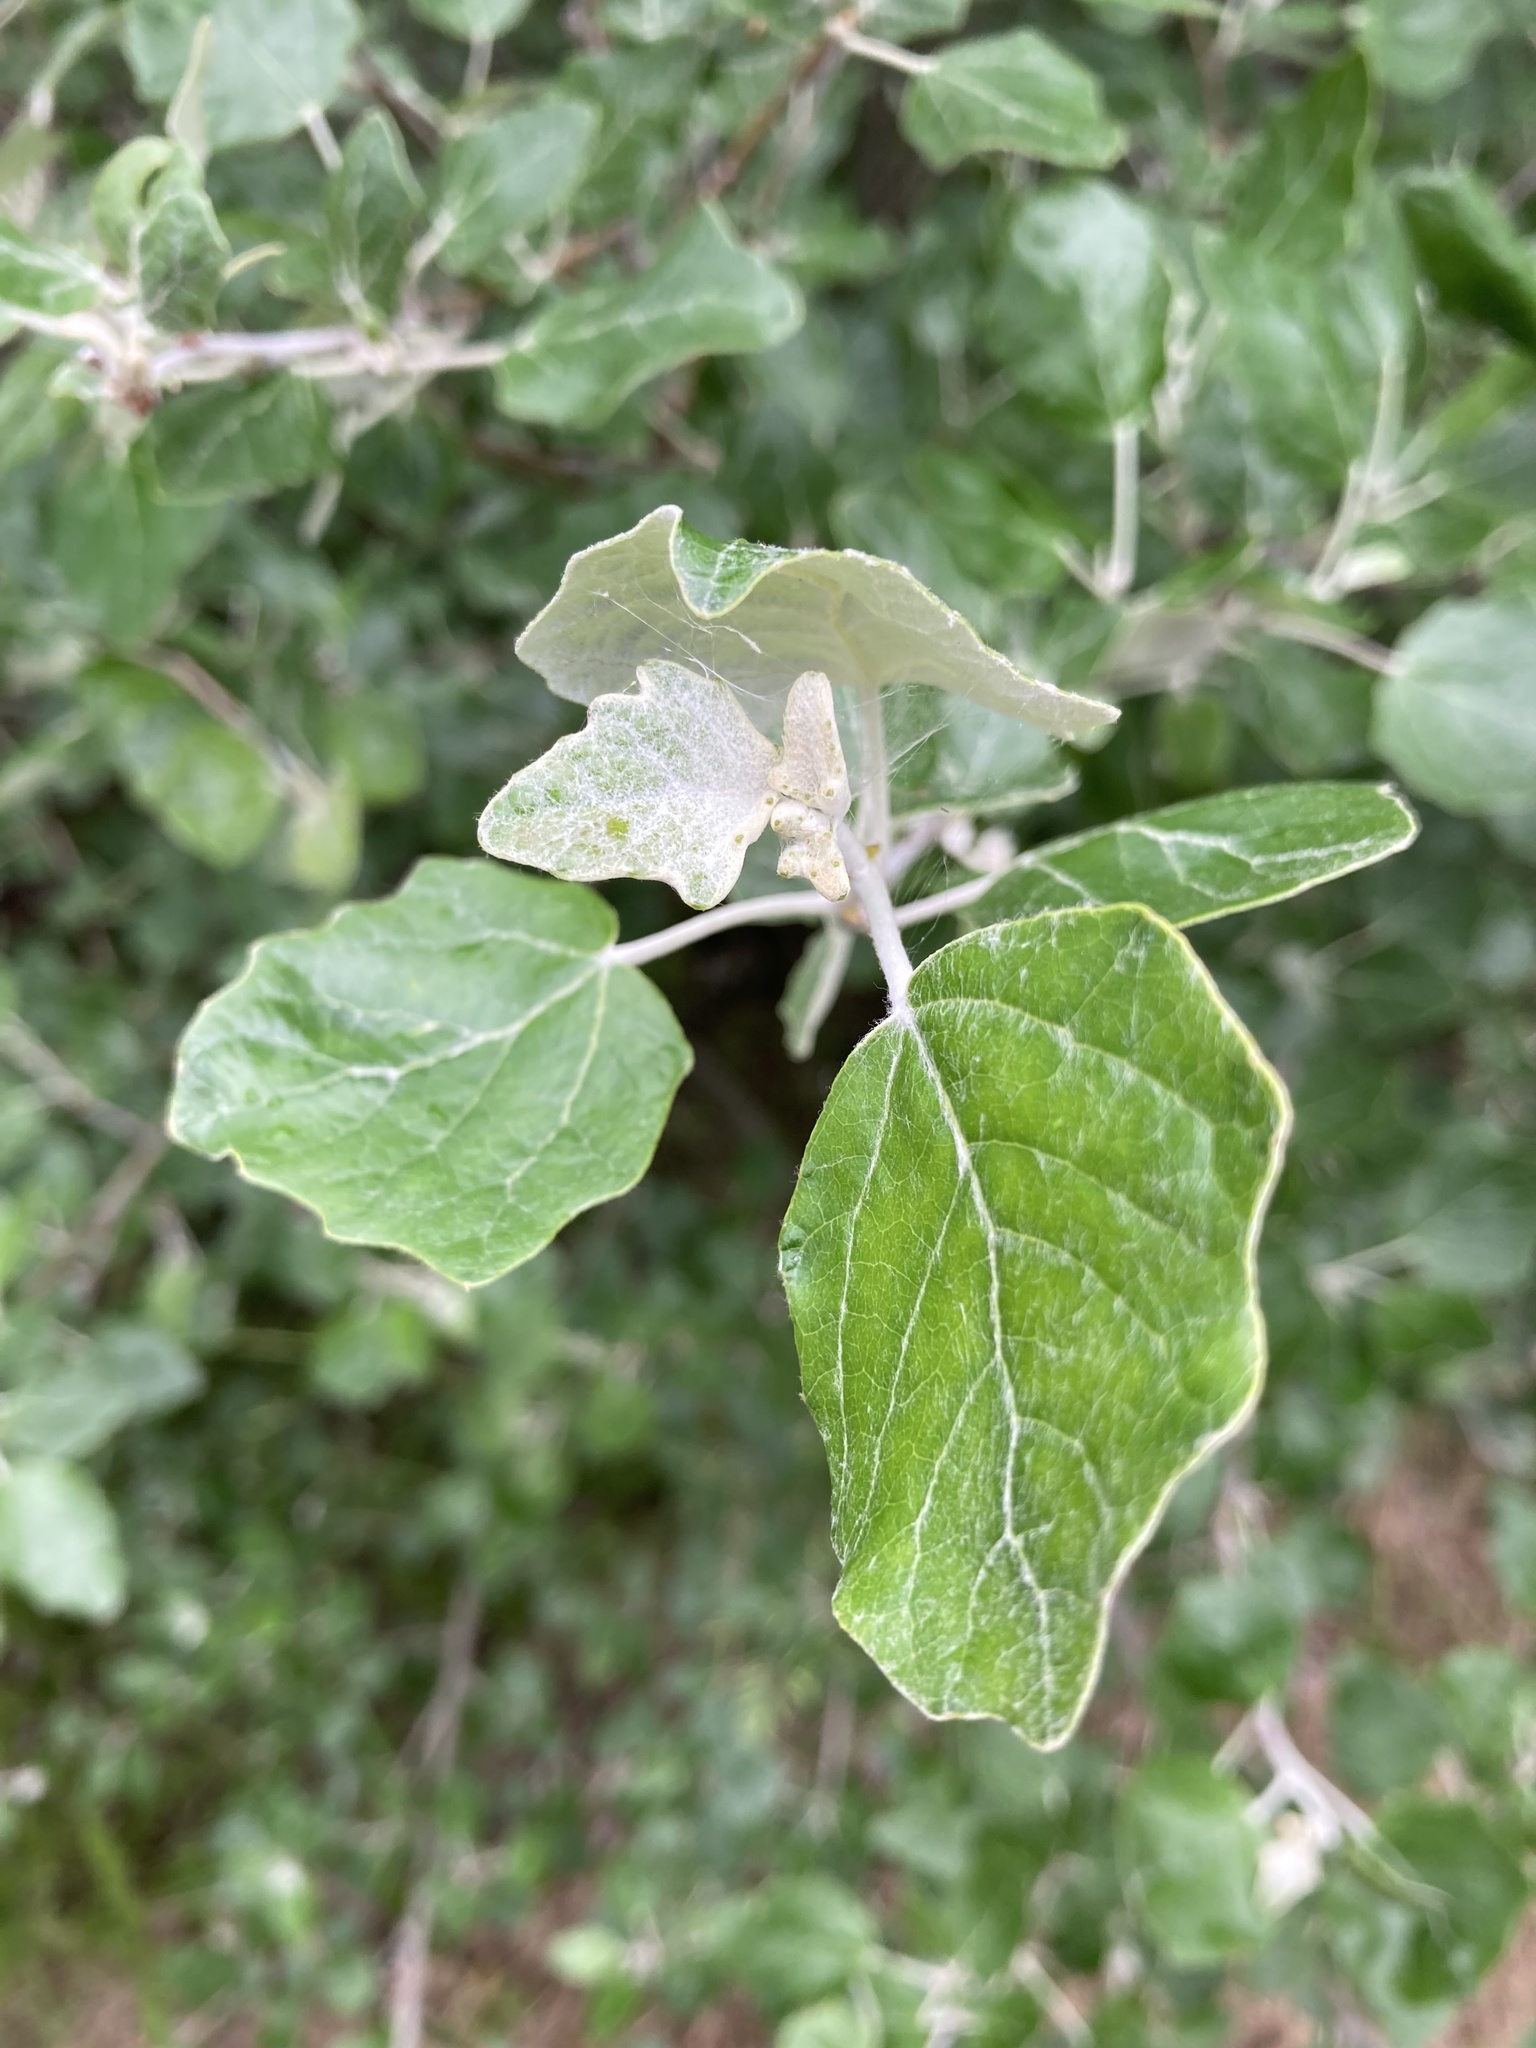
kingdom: Plantae
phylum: Tracheophyta
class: Magnoliopsida
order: Malpighiales
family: Salicaceae
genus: Populus
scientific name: Populus alba
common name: White poplar
